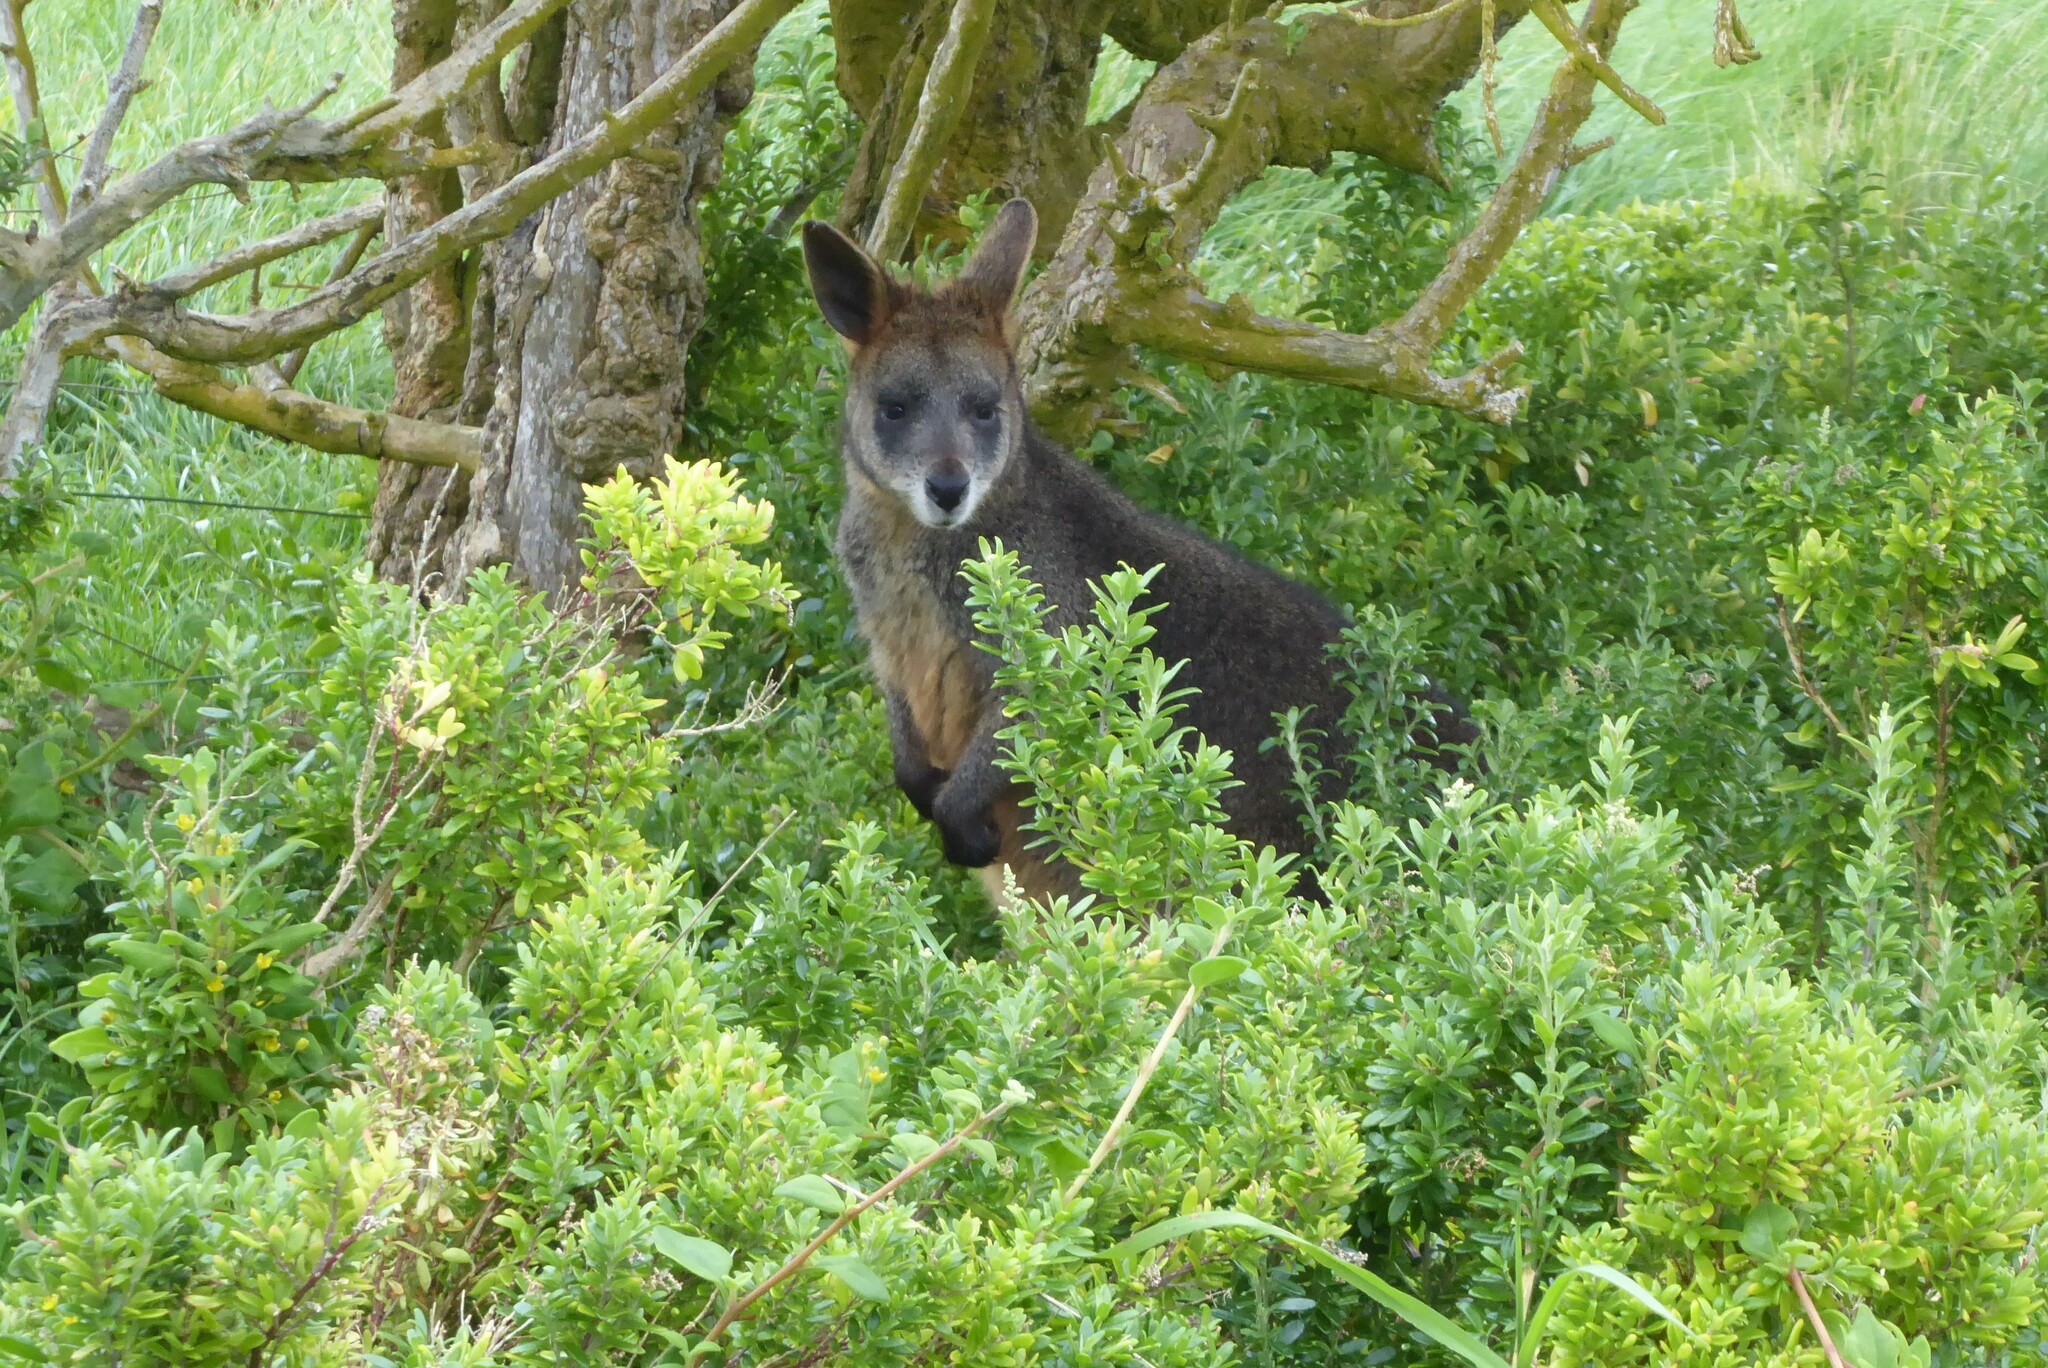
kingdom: Animalia
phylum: Chordata
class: Mammalia
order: Diprotodontia
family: Macropodidae
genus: Wallabia
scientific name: Wallabia bicolor
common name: Swamp wallaby
